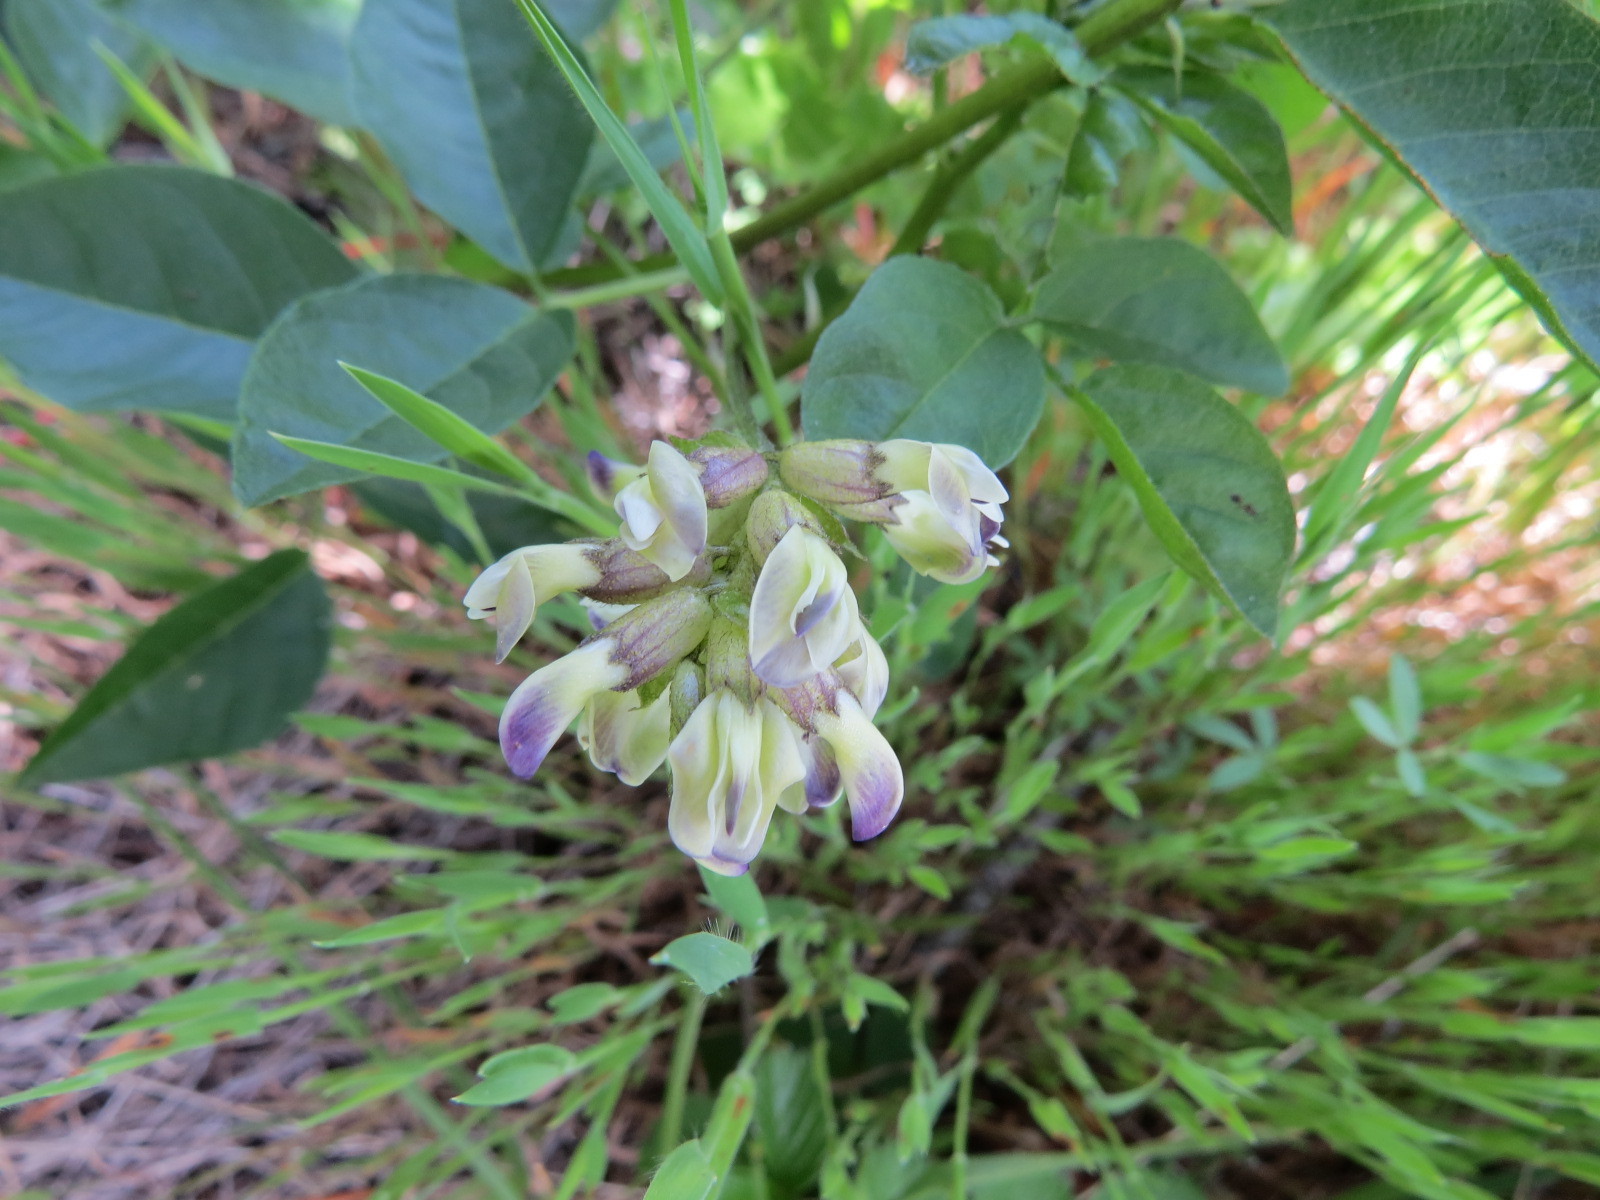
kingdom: Plantae
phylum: Tracheophyta
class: Magnoliopsida
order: Fabales
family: Fabaceae
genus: Rupertia
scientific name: Rupertia physodes
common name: California-tea
